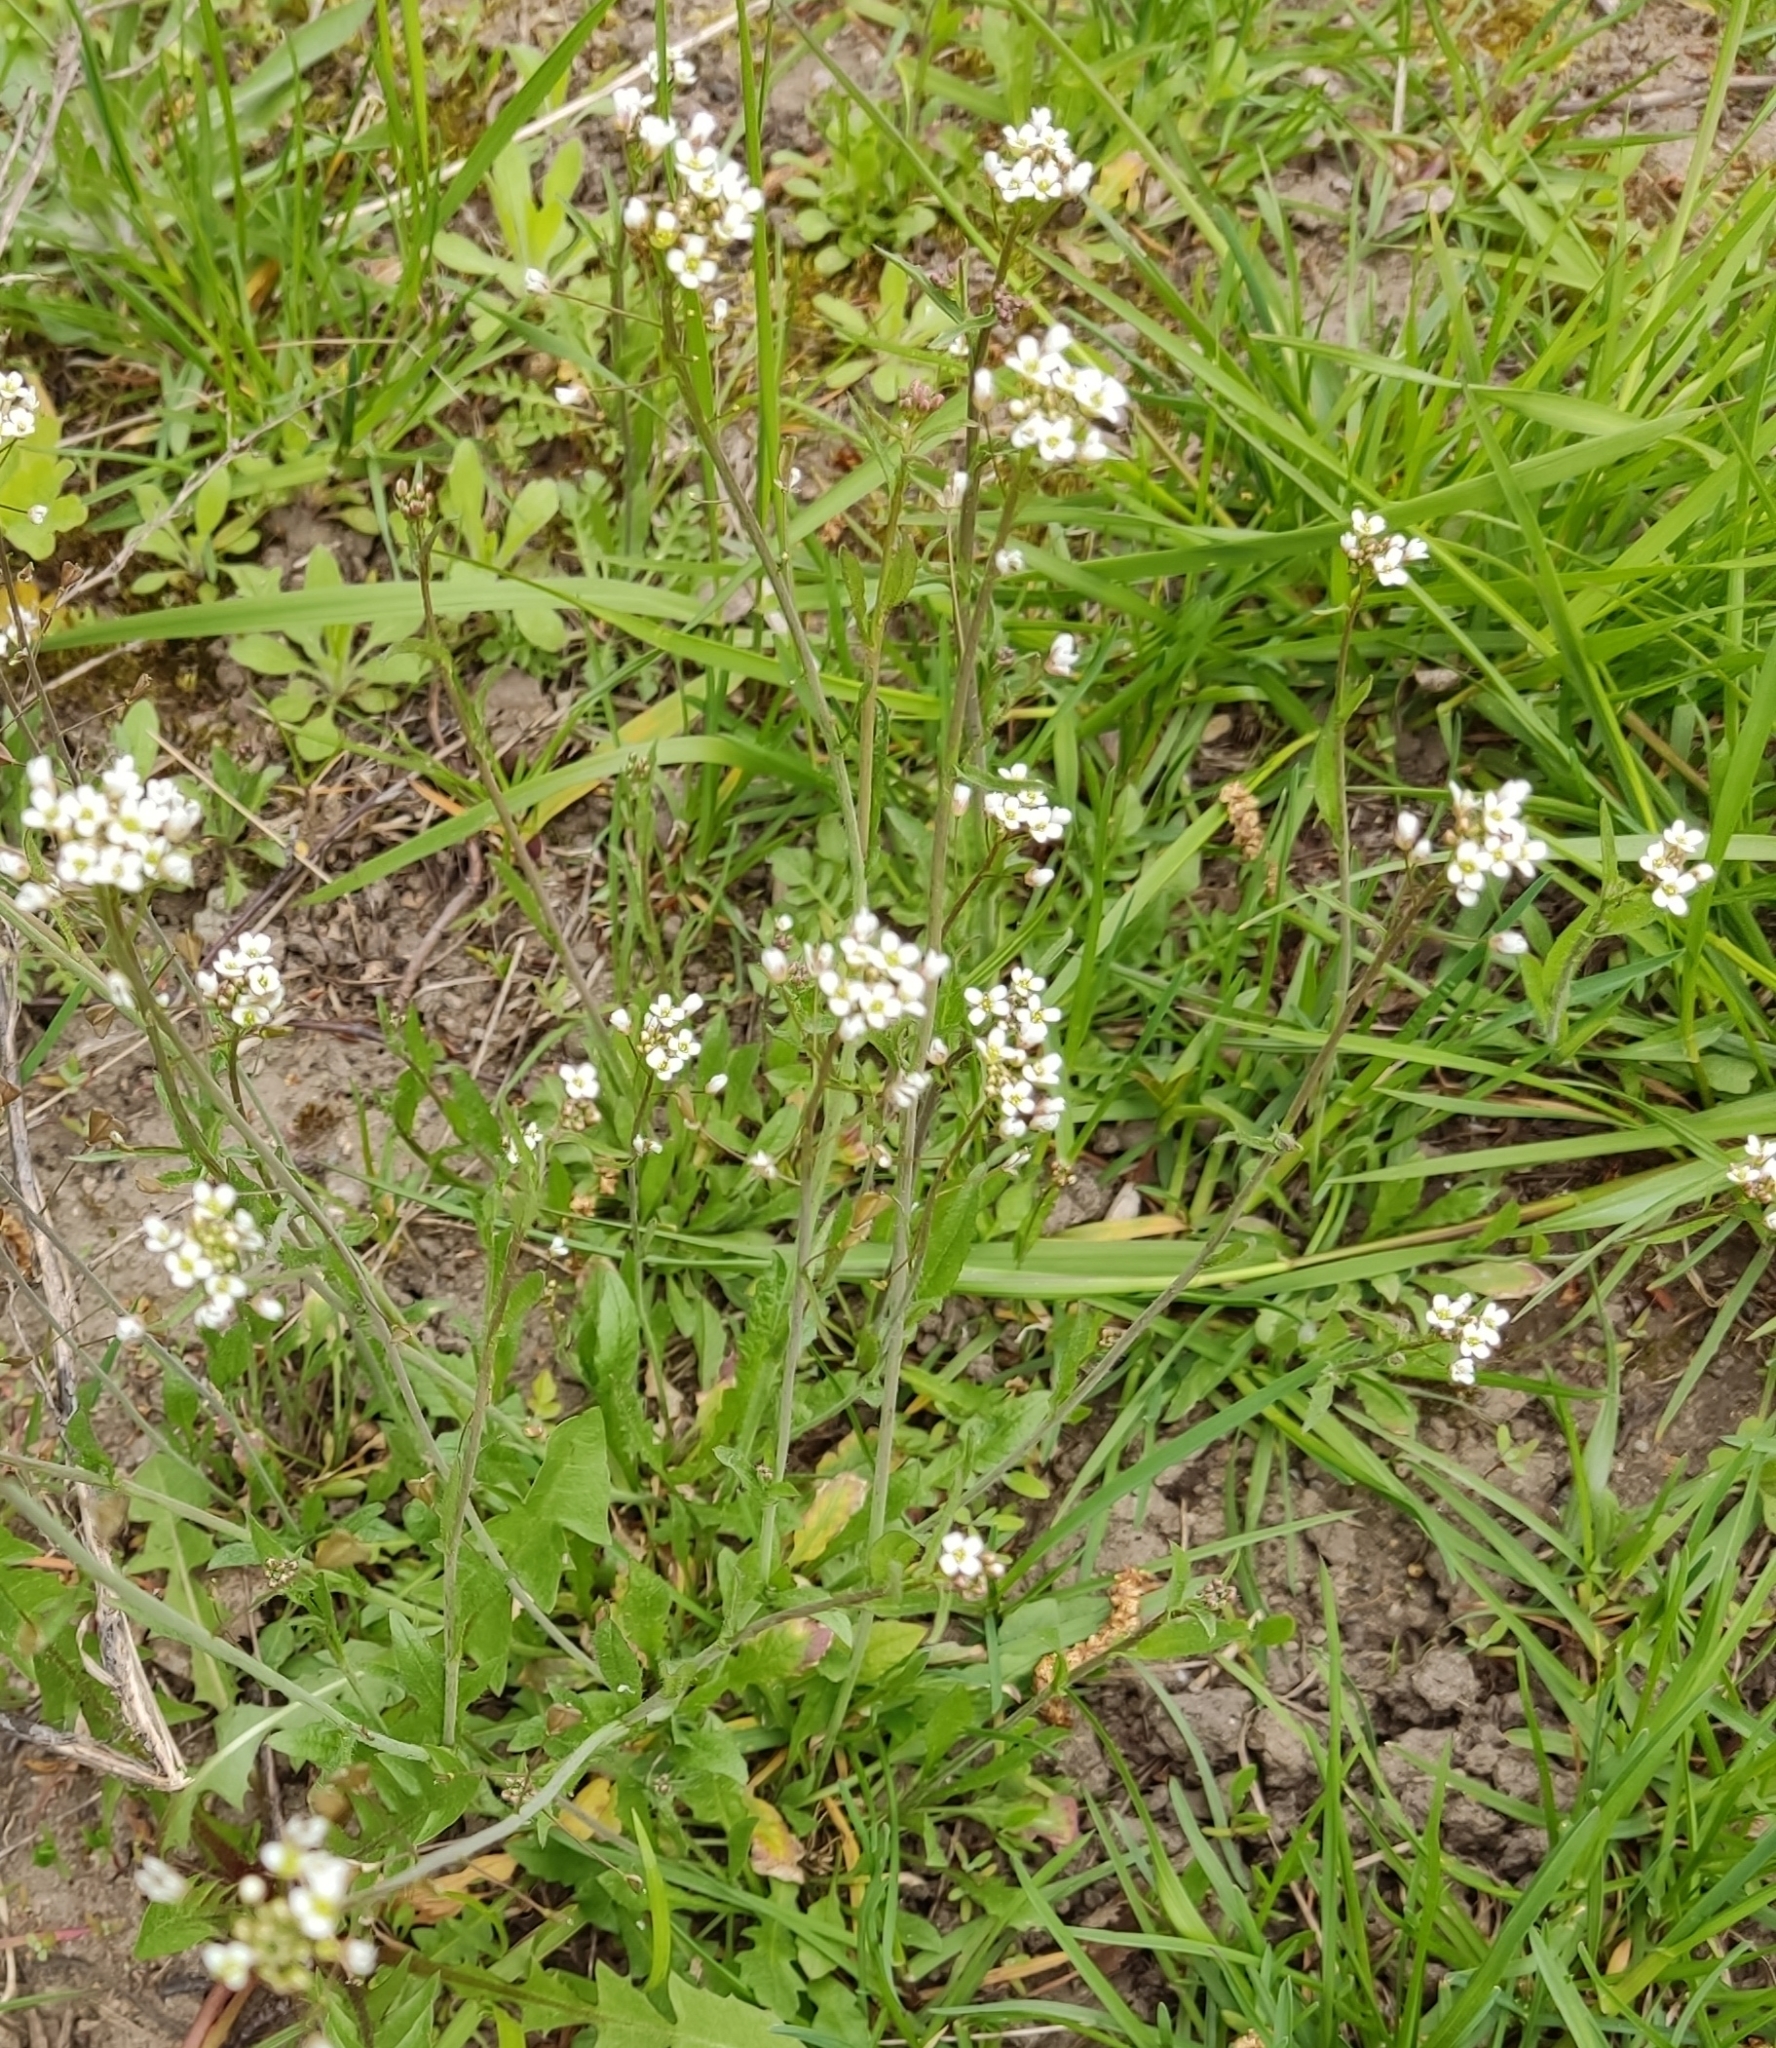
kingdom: Plantae
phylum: Tracheophyta
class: Magnoliopsida
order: Brassicales
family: Brassicaceae
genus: Capsella
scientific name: Capsella bursa-pastoris
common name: Shepherd's purse
